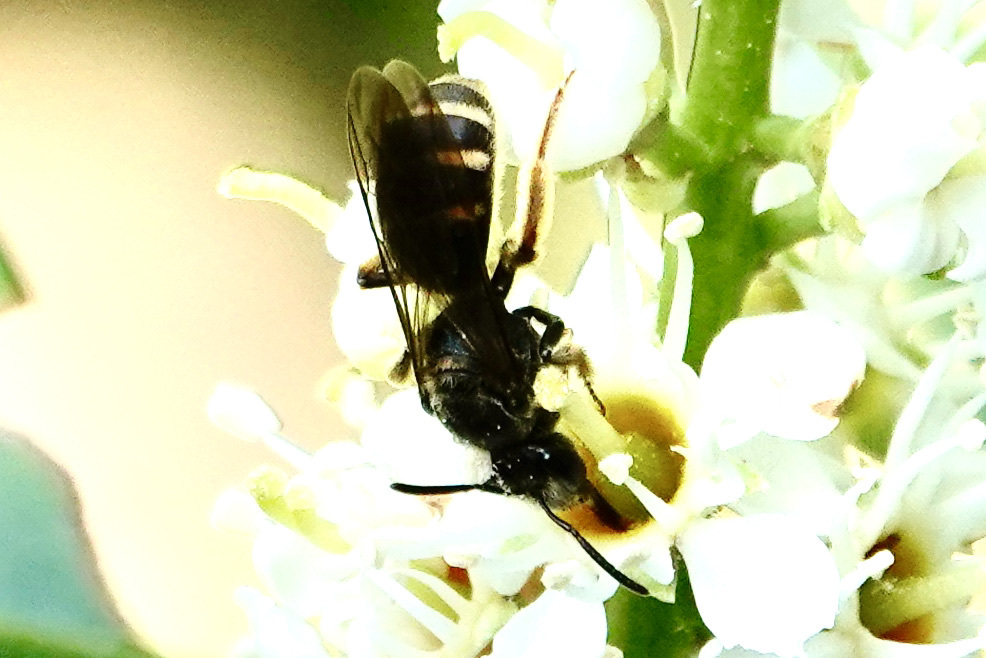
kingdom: Animalia
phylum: Arthropoda
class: Insecta
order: Hymenoptera
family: Halictidae
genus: Lasioglossum
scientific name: Lasioglossum fuscipenne
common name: Brown-winged sweat bee
